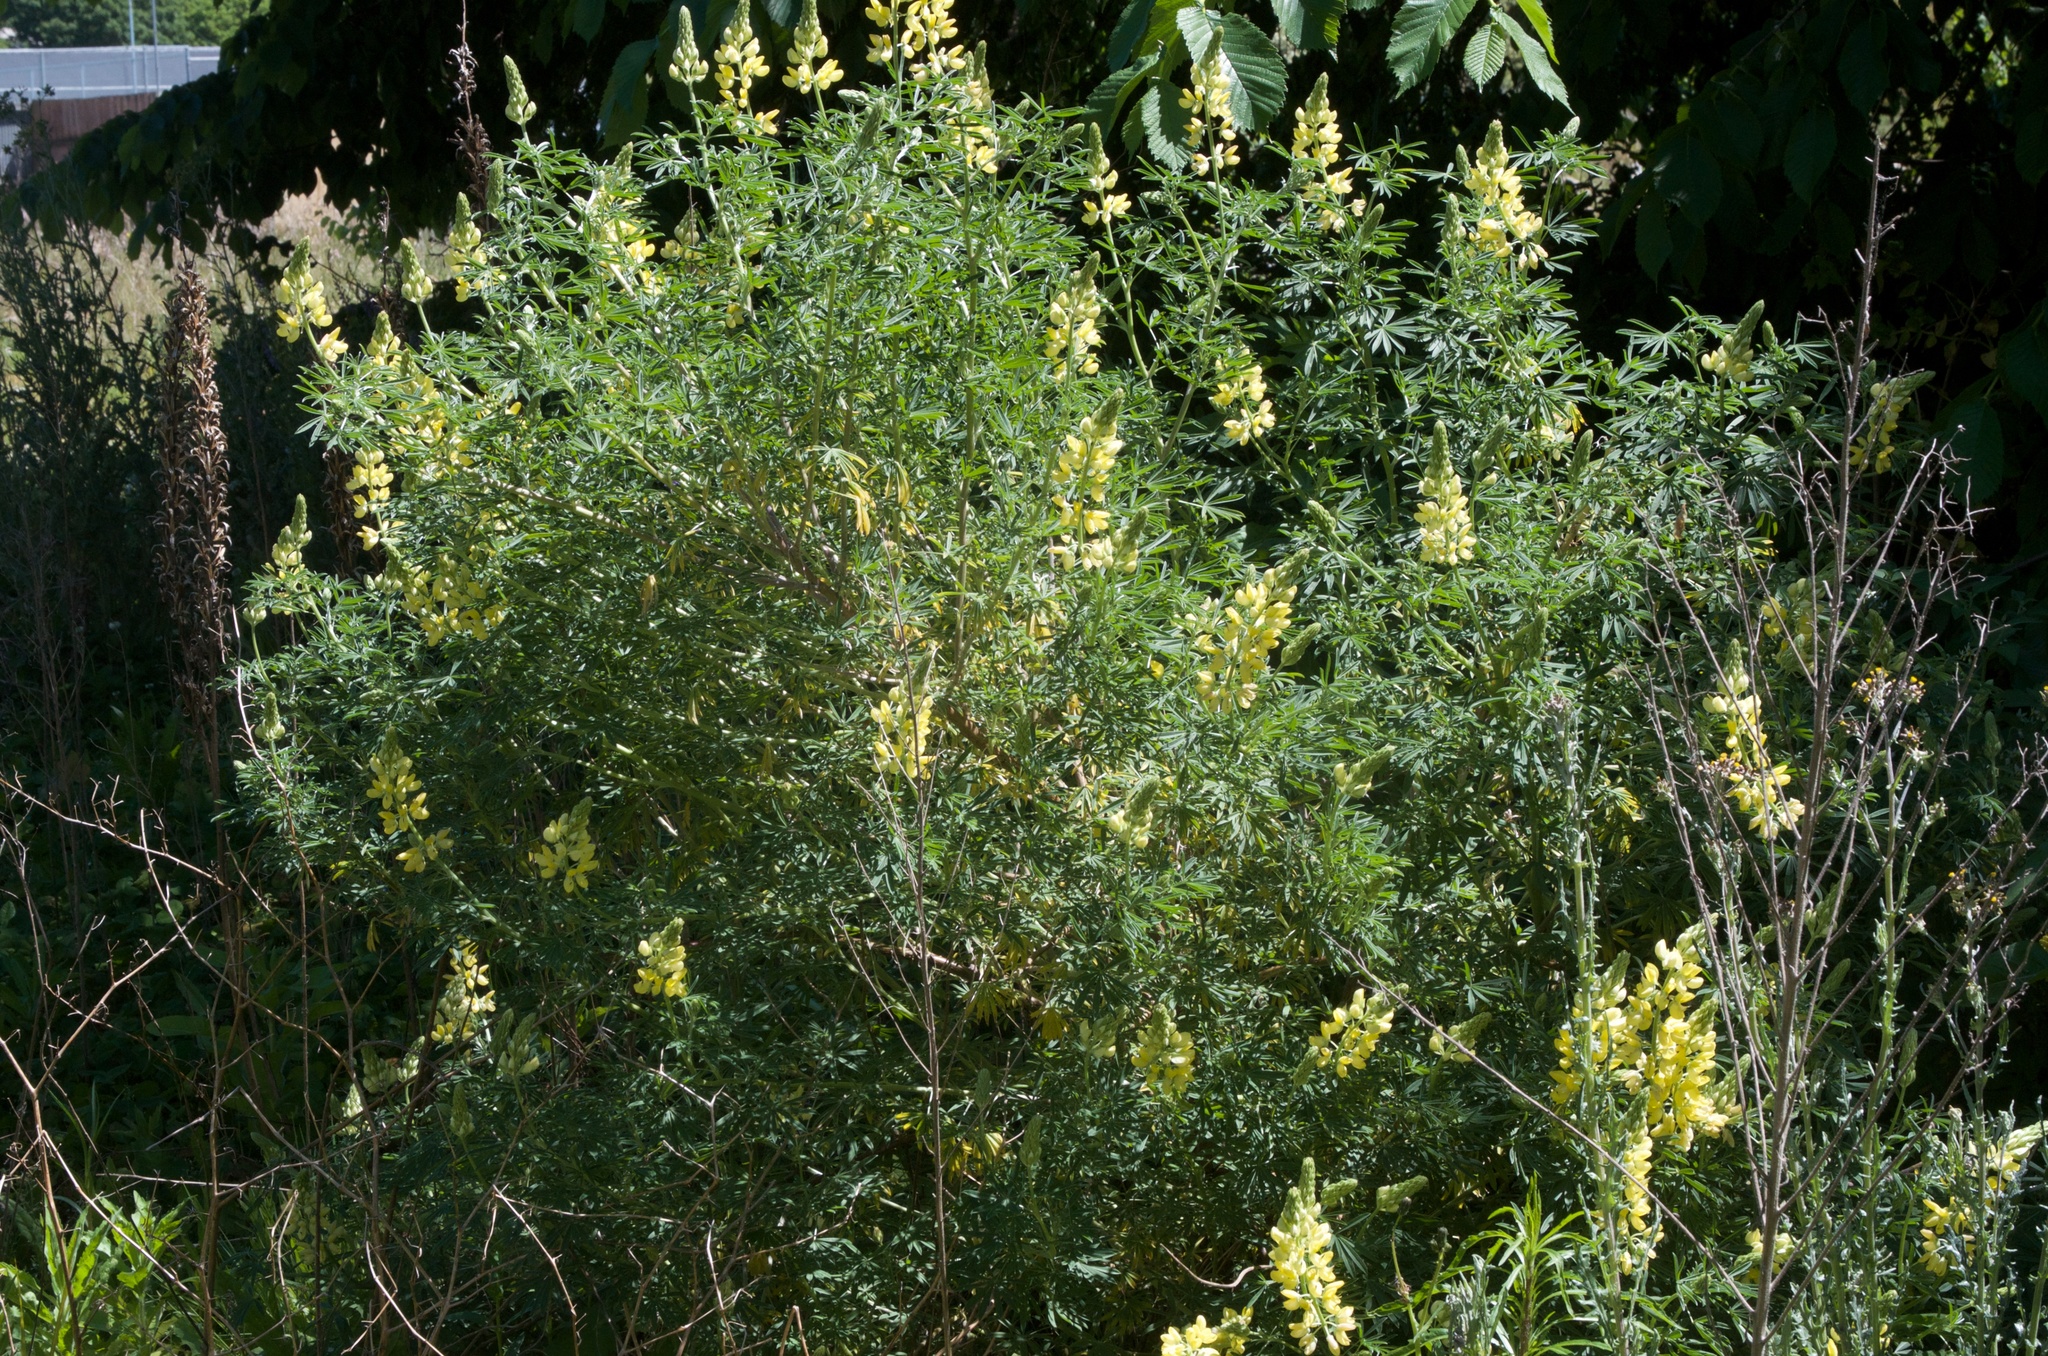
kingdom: Plantae
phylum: Tracheophyta
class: Magnoliopsida
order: Fabales
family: Fabaceae
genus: Lupinus
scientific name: Lupinus arboreus
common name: Yellow bush lupine
